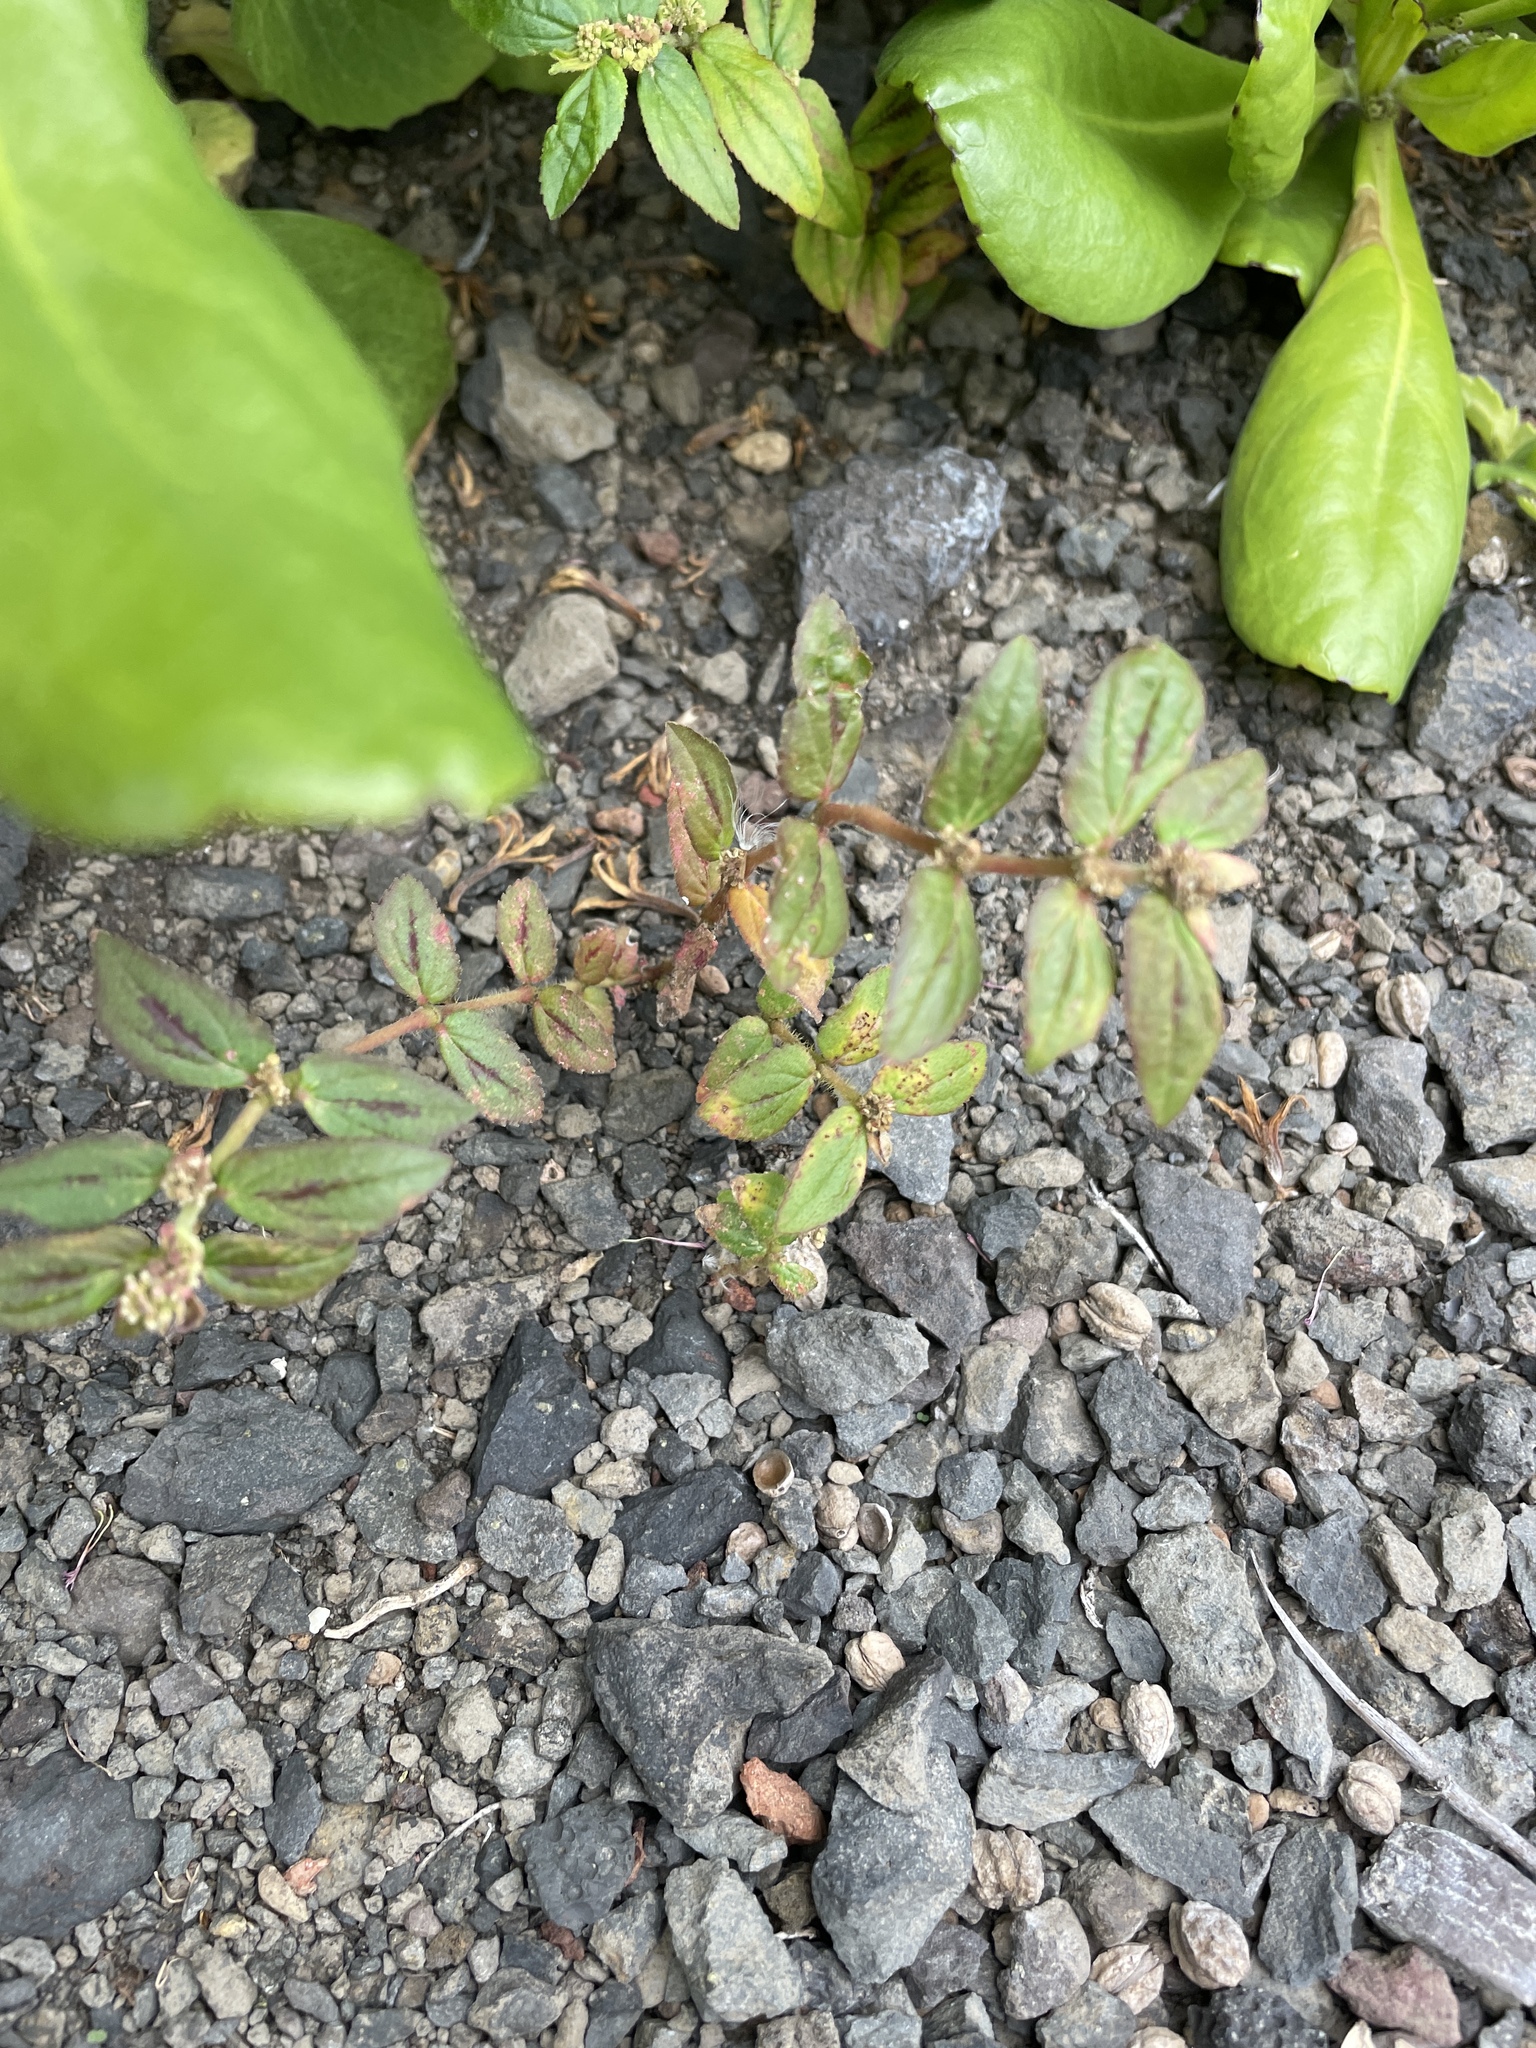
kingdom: Plantae
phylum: Tracheophyta
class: Magnoliopsida
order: Malpighiales
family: Euphorbiaceae
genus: Euphorbia
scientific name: Euphorbia hirta
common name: Pillpod sandmat
